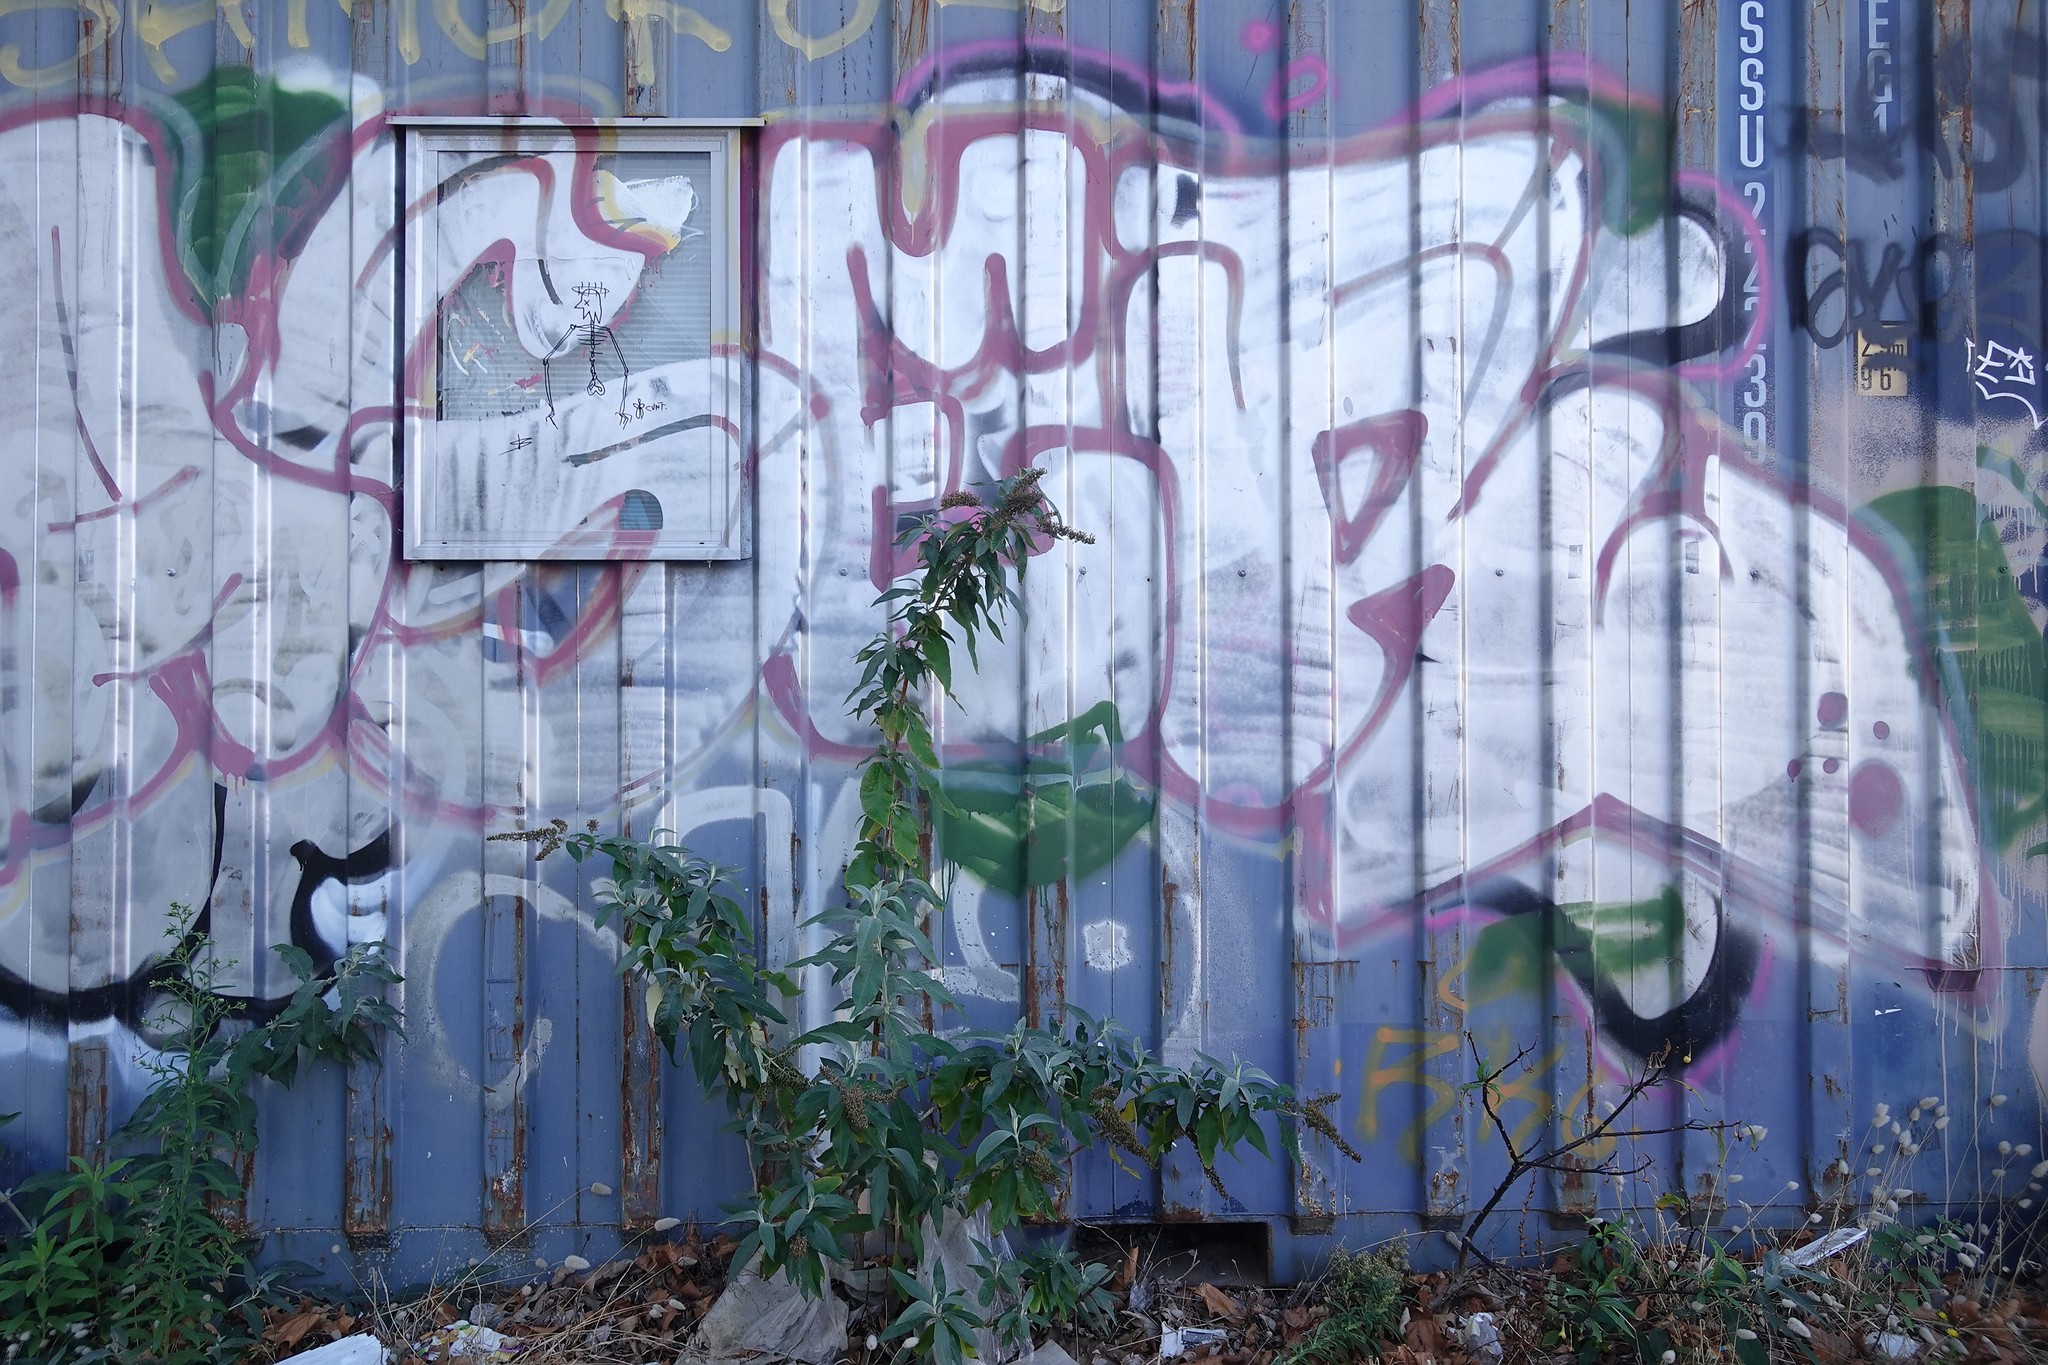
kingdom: Plantae
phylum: Tracheophyta
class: Magnoliopsida
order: Lamiales
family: Scrophulariaceae
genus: Buddleja
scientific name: Buddleja davidii
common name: Butterfly-bush
